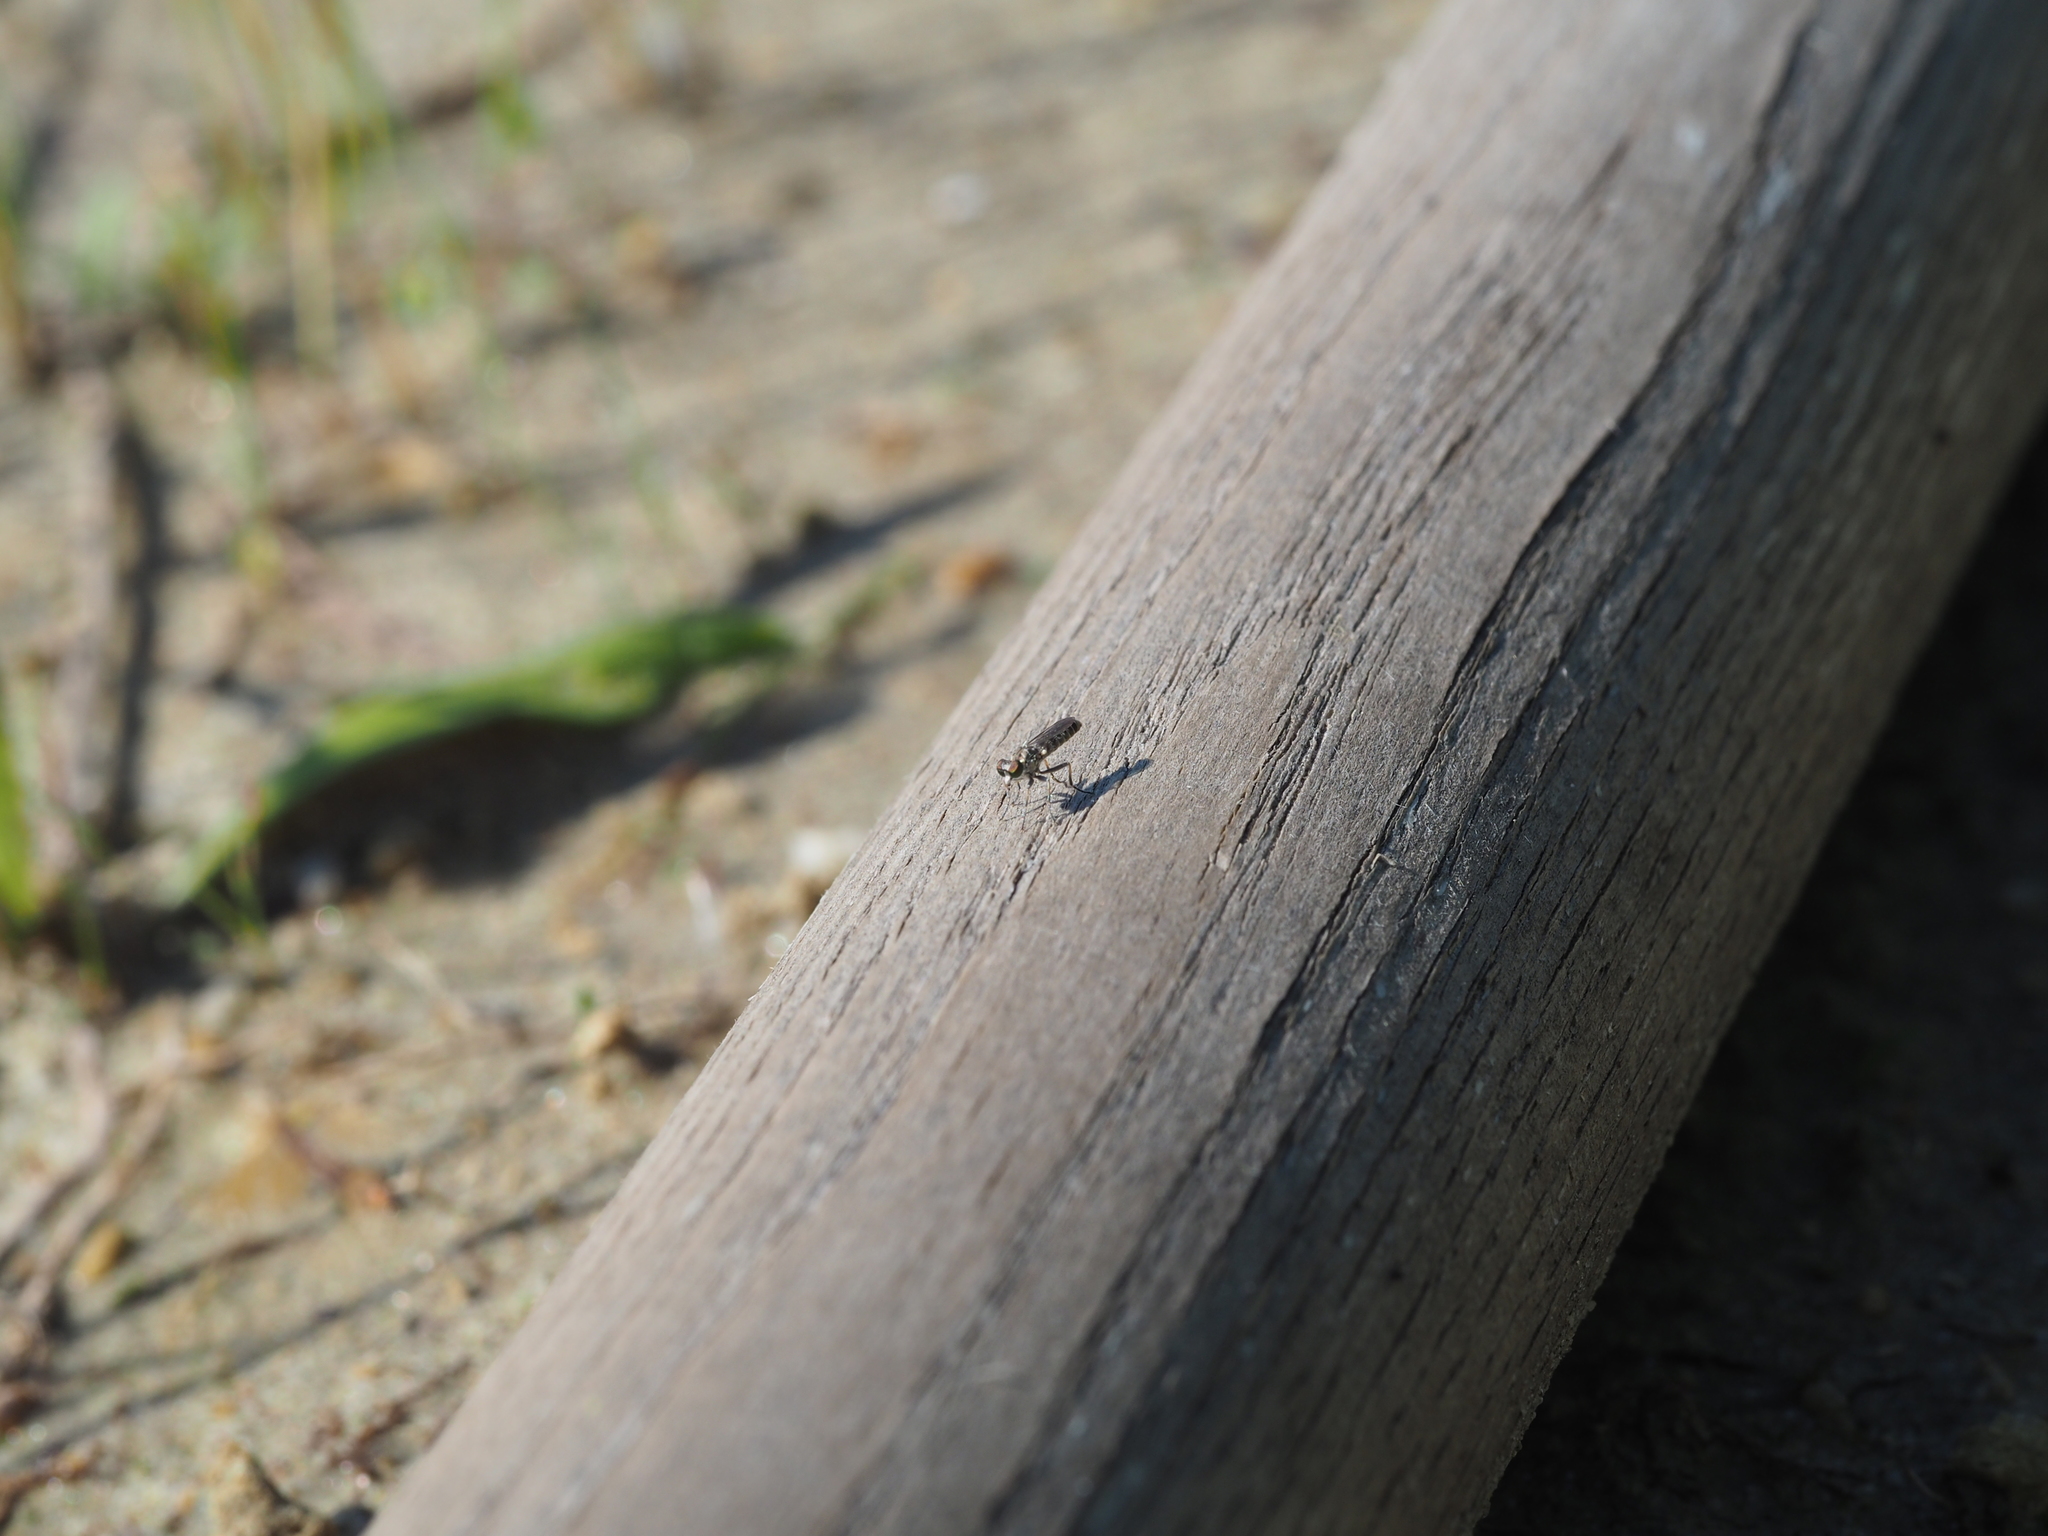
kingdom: Animalia
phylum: Arthropoda
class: Insecta
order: Diptera
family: Asilidae
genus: Stichopogon
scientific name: Stichopogon elegantulus
